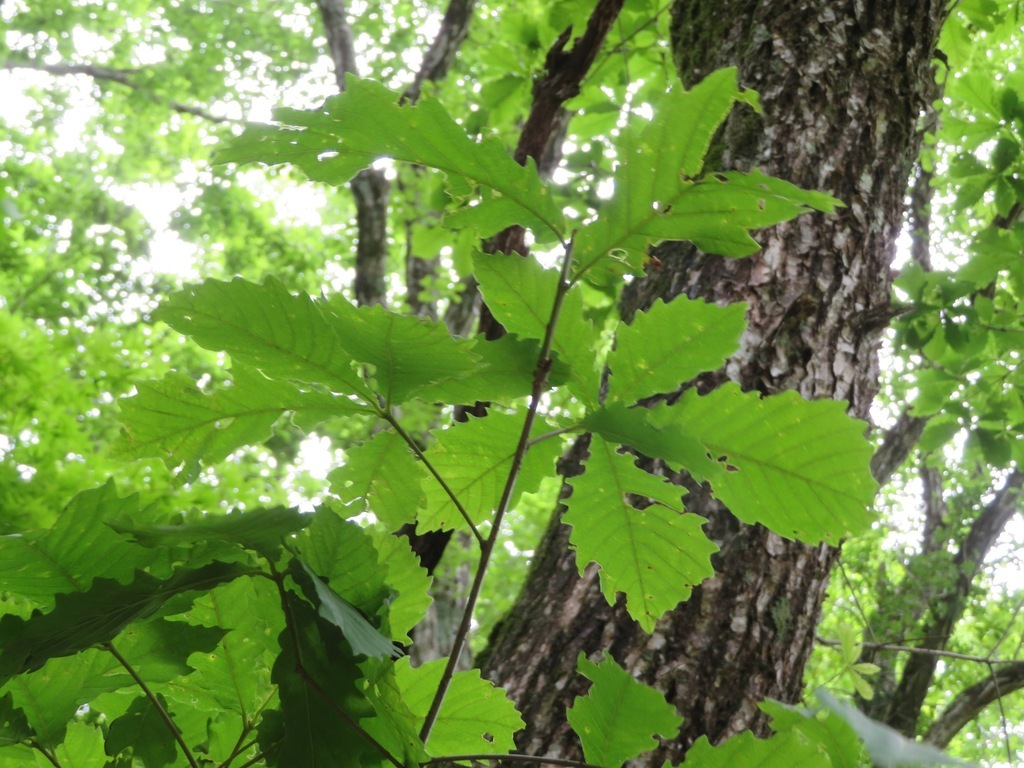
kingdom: Plantae
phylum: Tracheophyta
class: Magnoliopsida
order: Fagales
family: Fagaceae
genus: Quercus
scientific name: Quercus crispula
